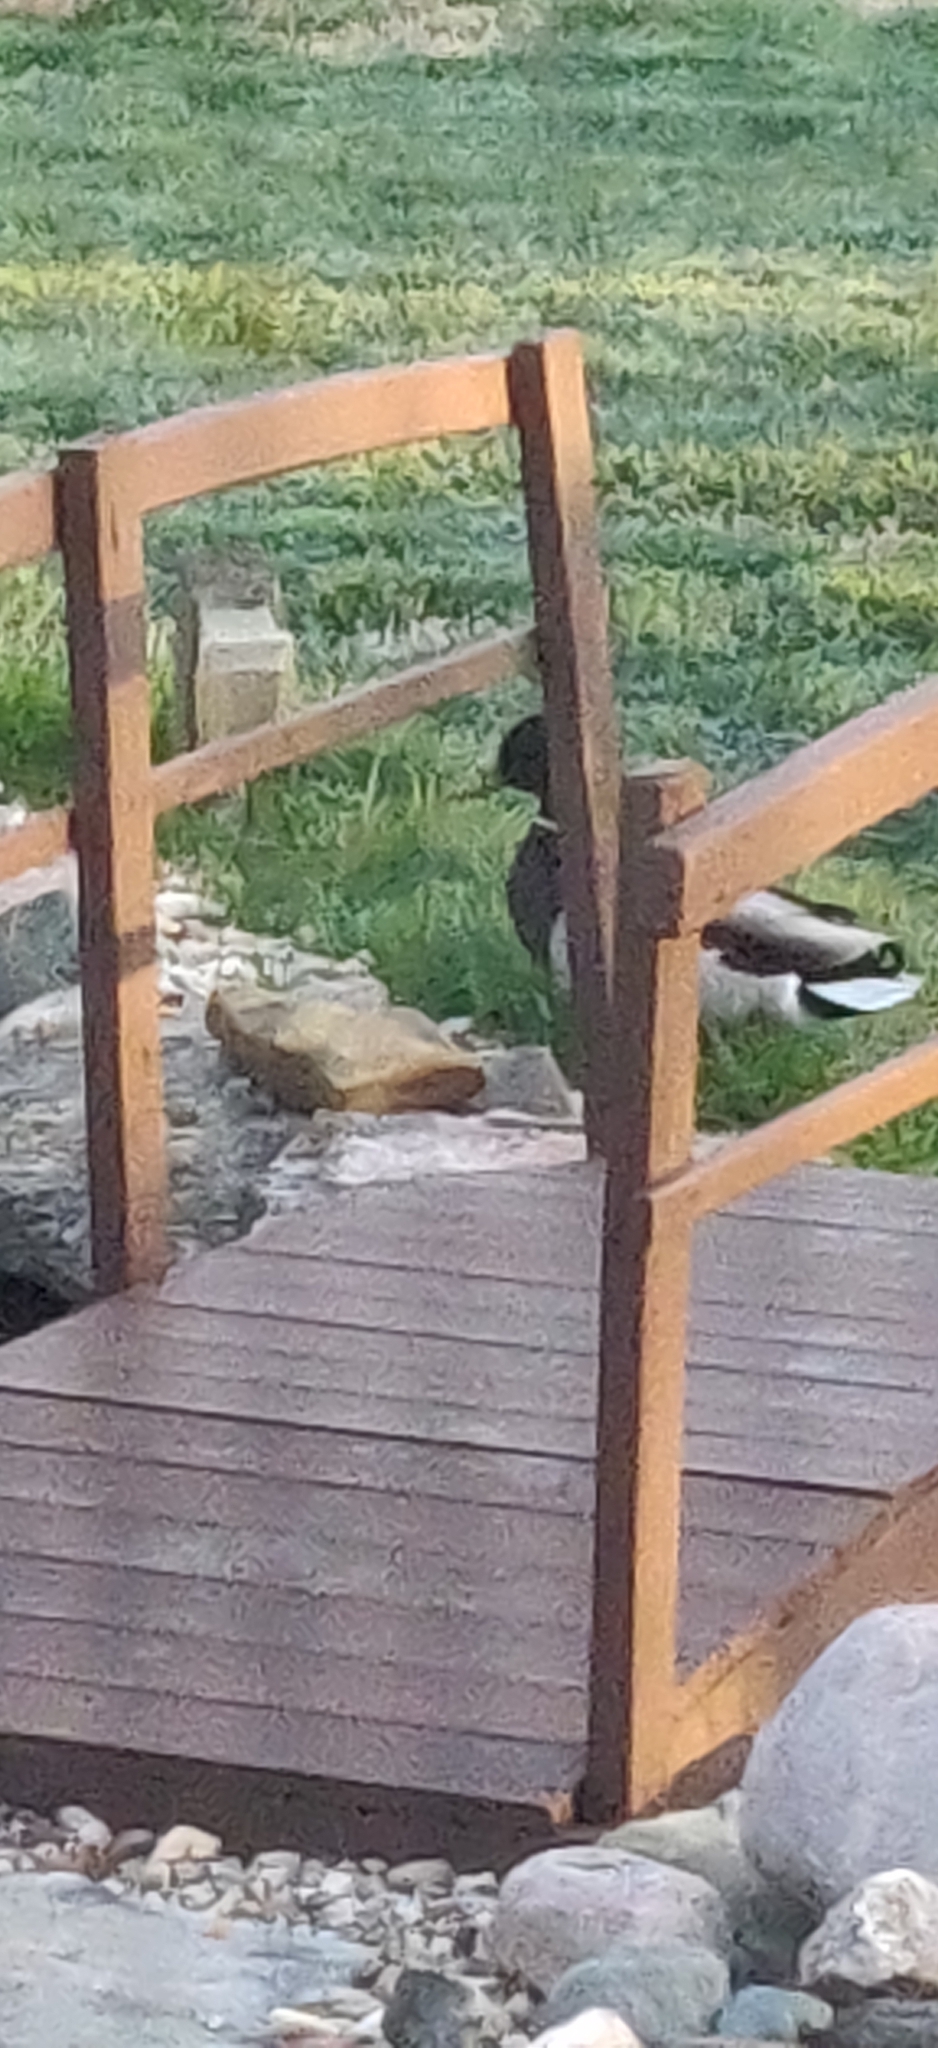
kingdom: Animalia
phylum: Chordata
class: Aves
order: Anseriformes
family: Anatidae
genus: Anas
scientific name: Anas platyrhynchos
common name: Mallard
